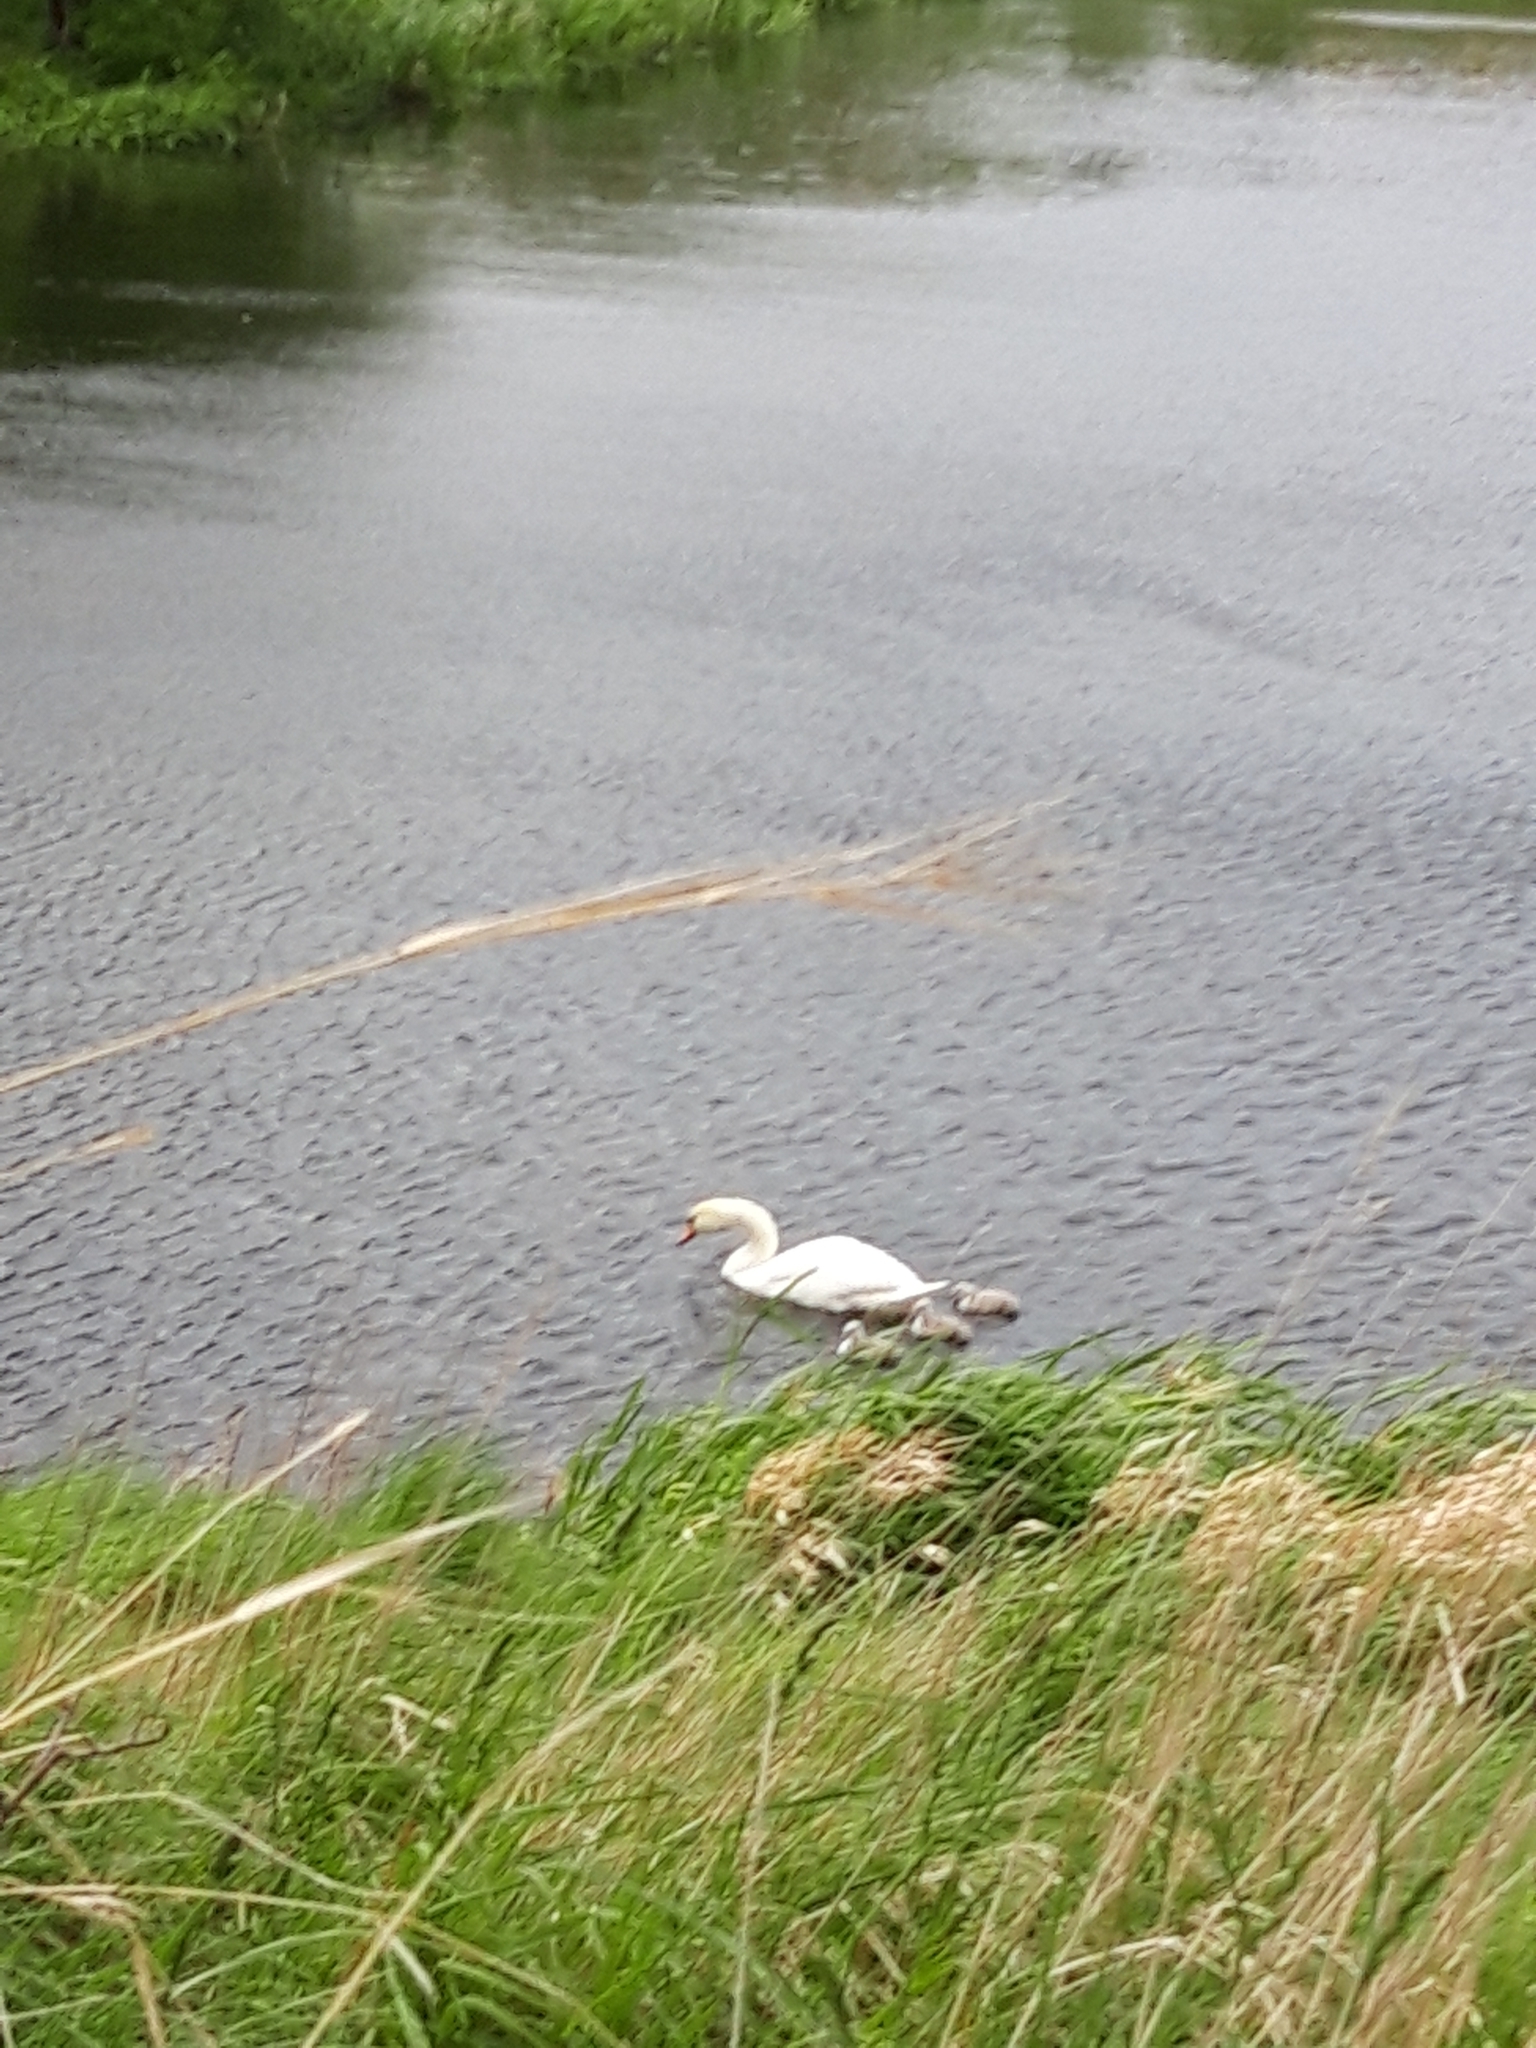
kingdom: Animalia
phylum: Chordata
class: Aves
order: Anseriformes
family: Anatidae
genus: Cygnus
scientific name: Cygnus olor
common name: Mute swan
